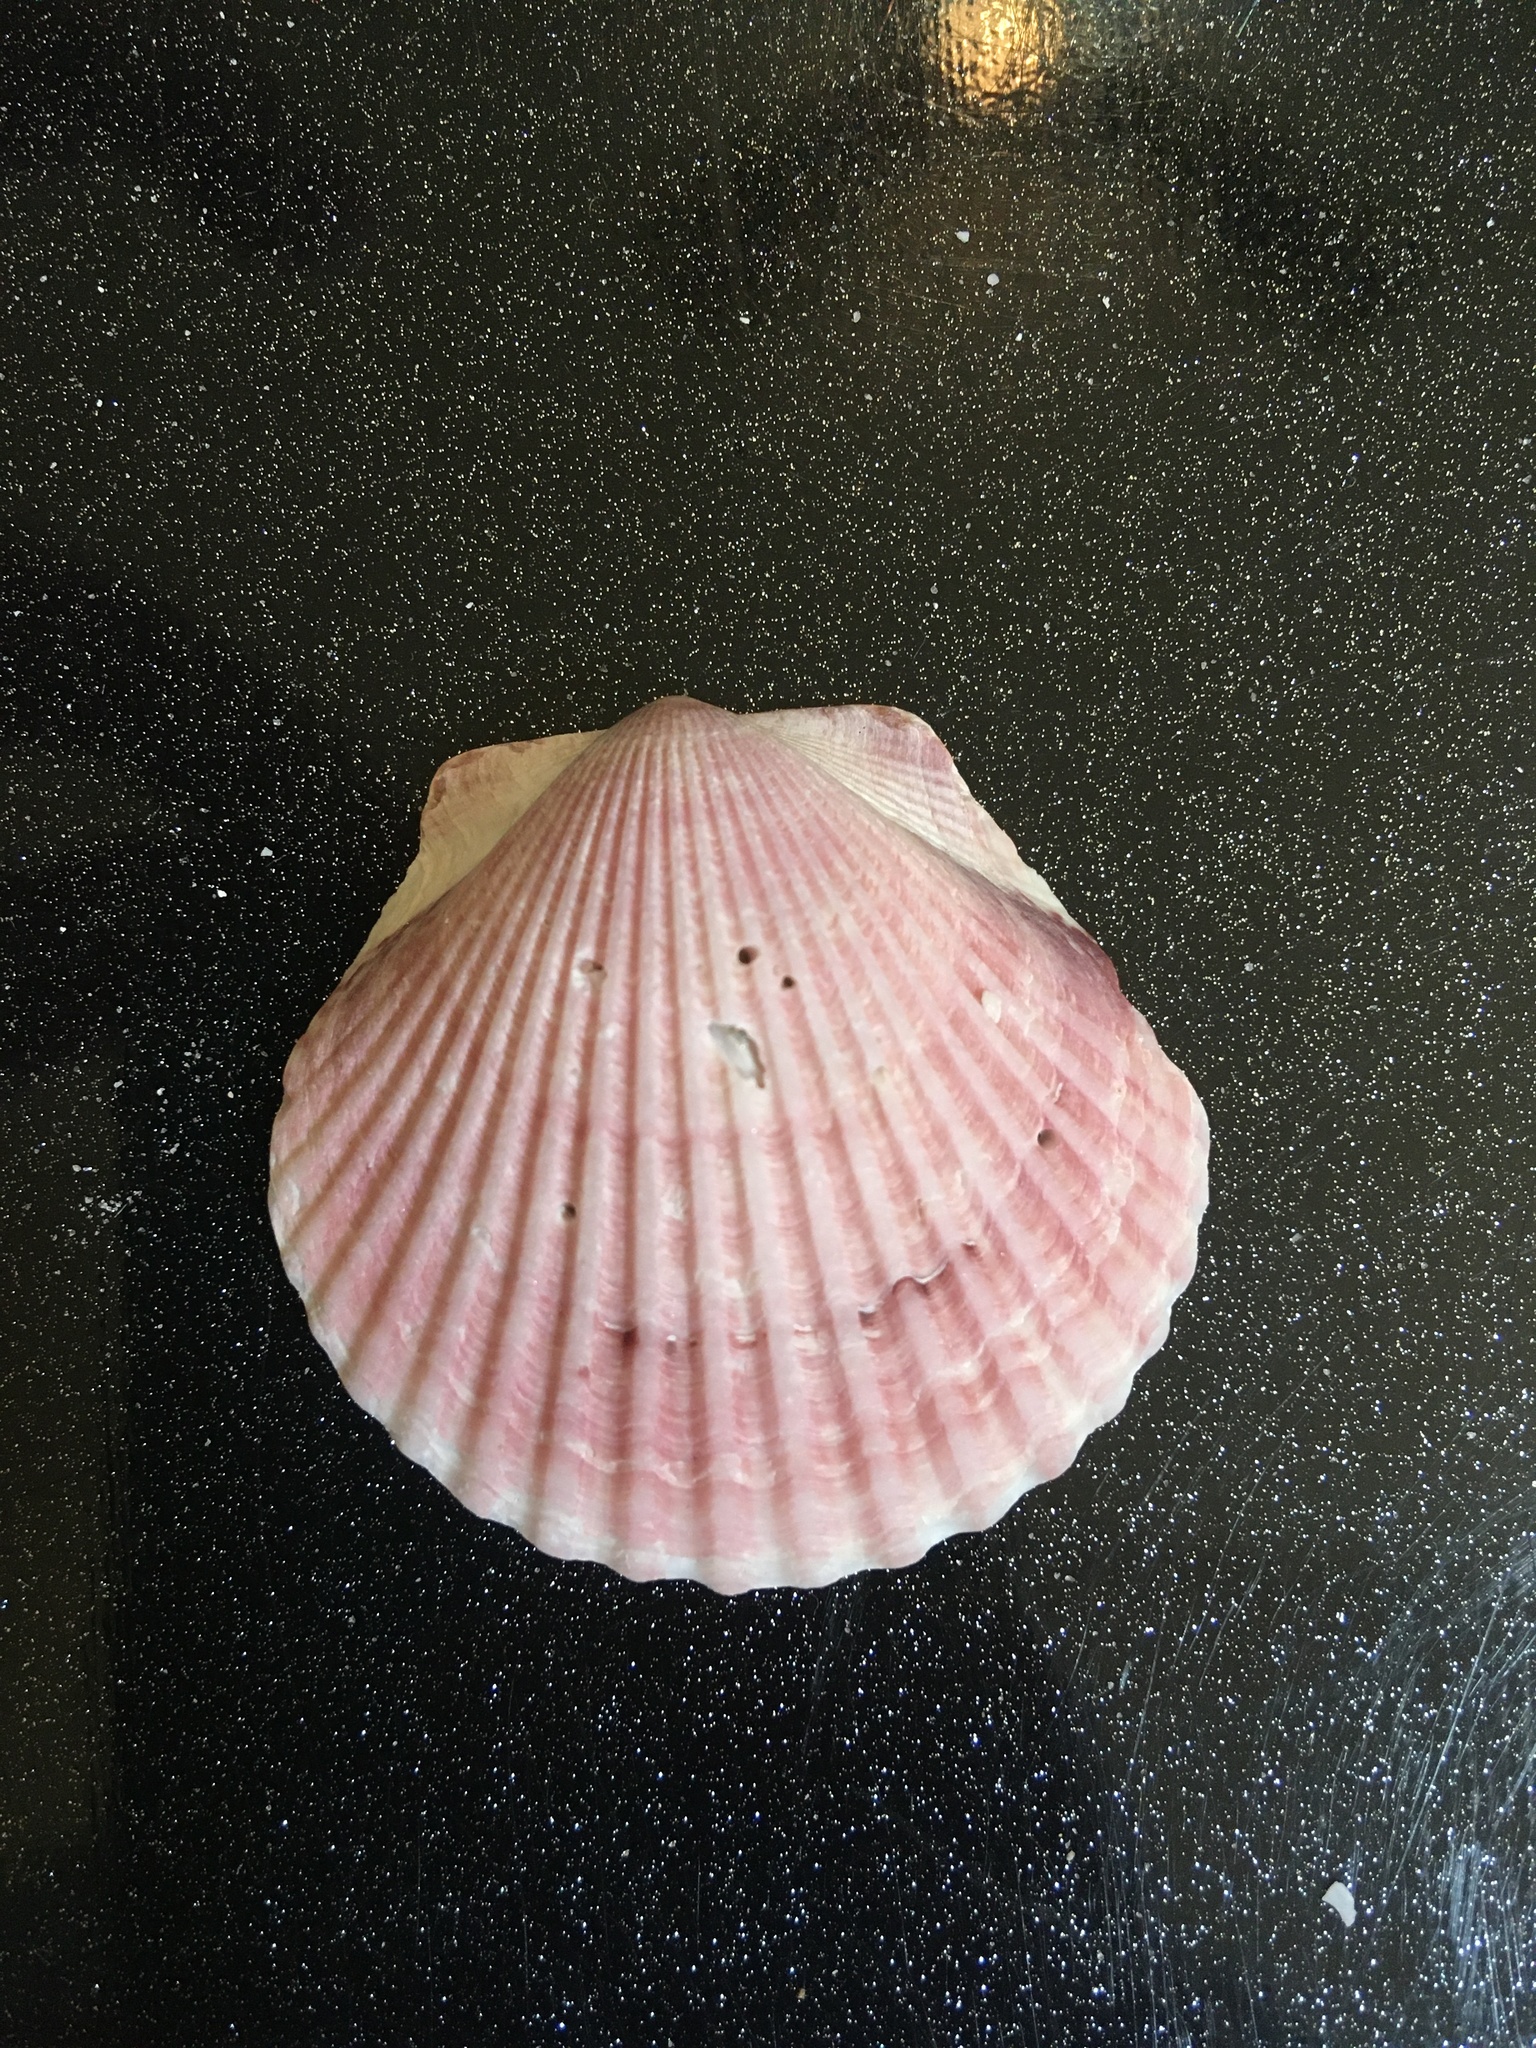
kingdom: Animalia
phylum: Mollusca
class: Bivalvia
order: Pectinida
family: Pectinidae
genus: Argopecten
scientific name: Argopecten gibbus
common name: Atlantic calico scallop
